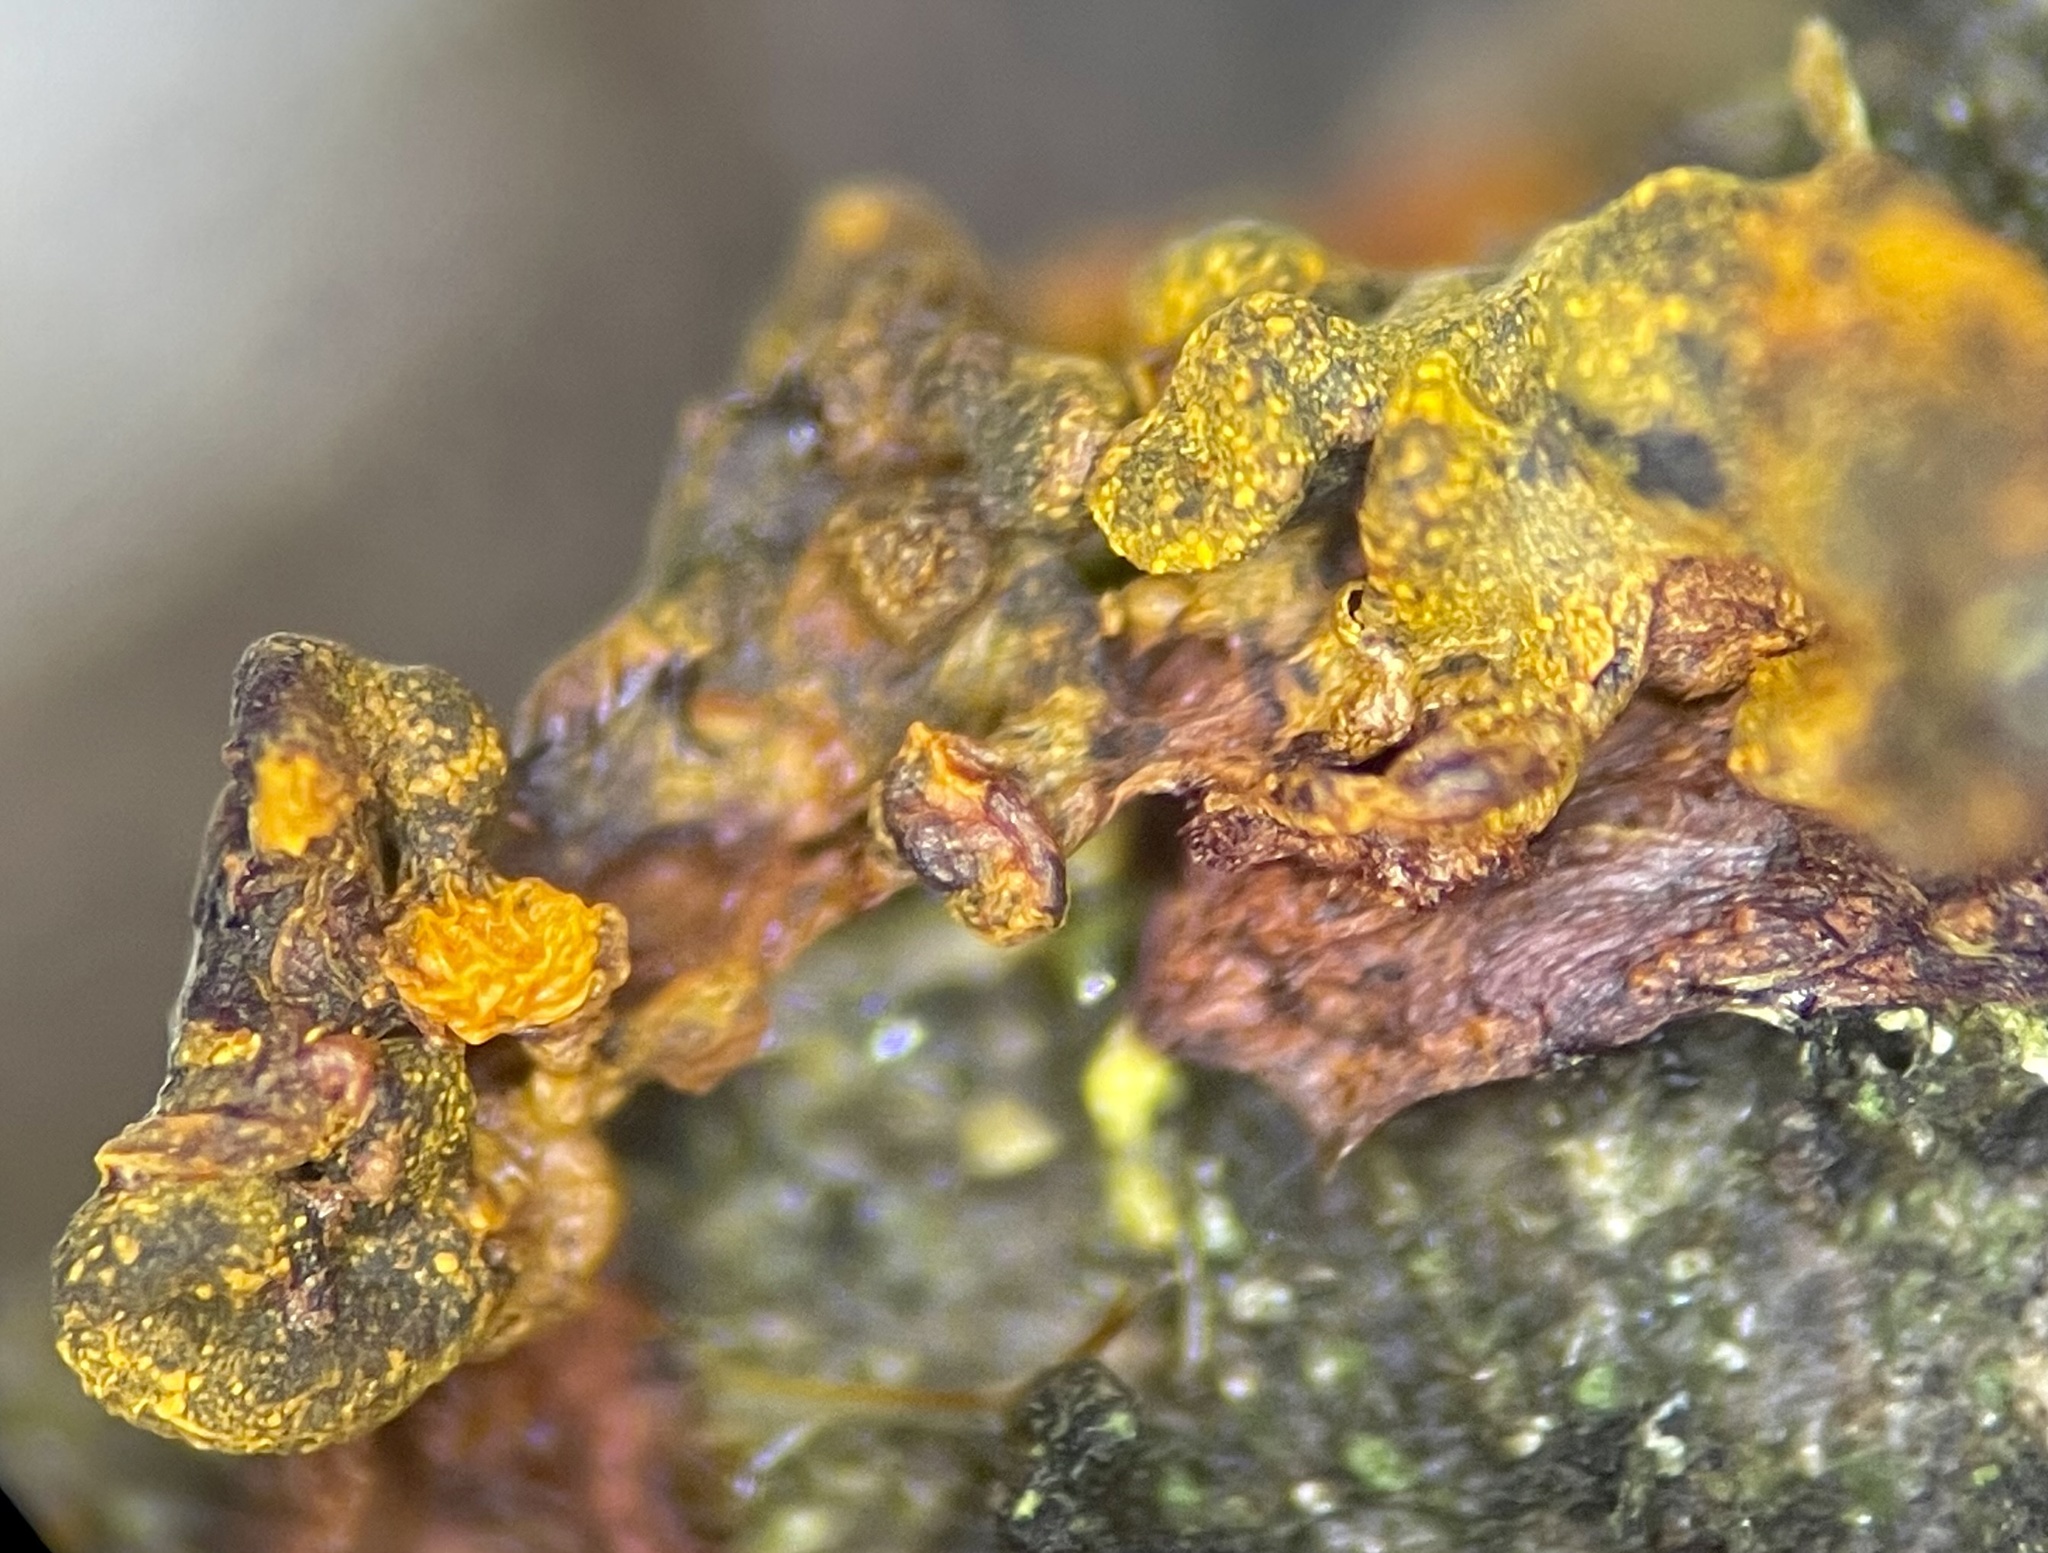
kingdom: Protozoa
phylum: Mycetozoa
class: Myxomycetes
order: Physarales
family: Physaraceae
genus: Physarella
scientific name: Physarella oblonga
